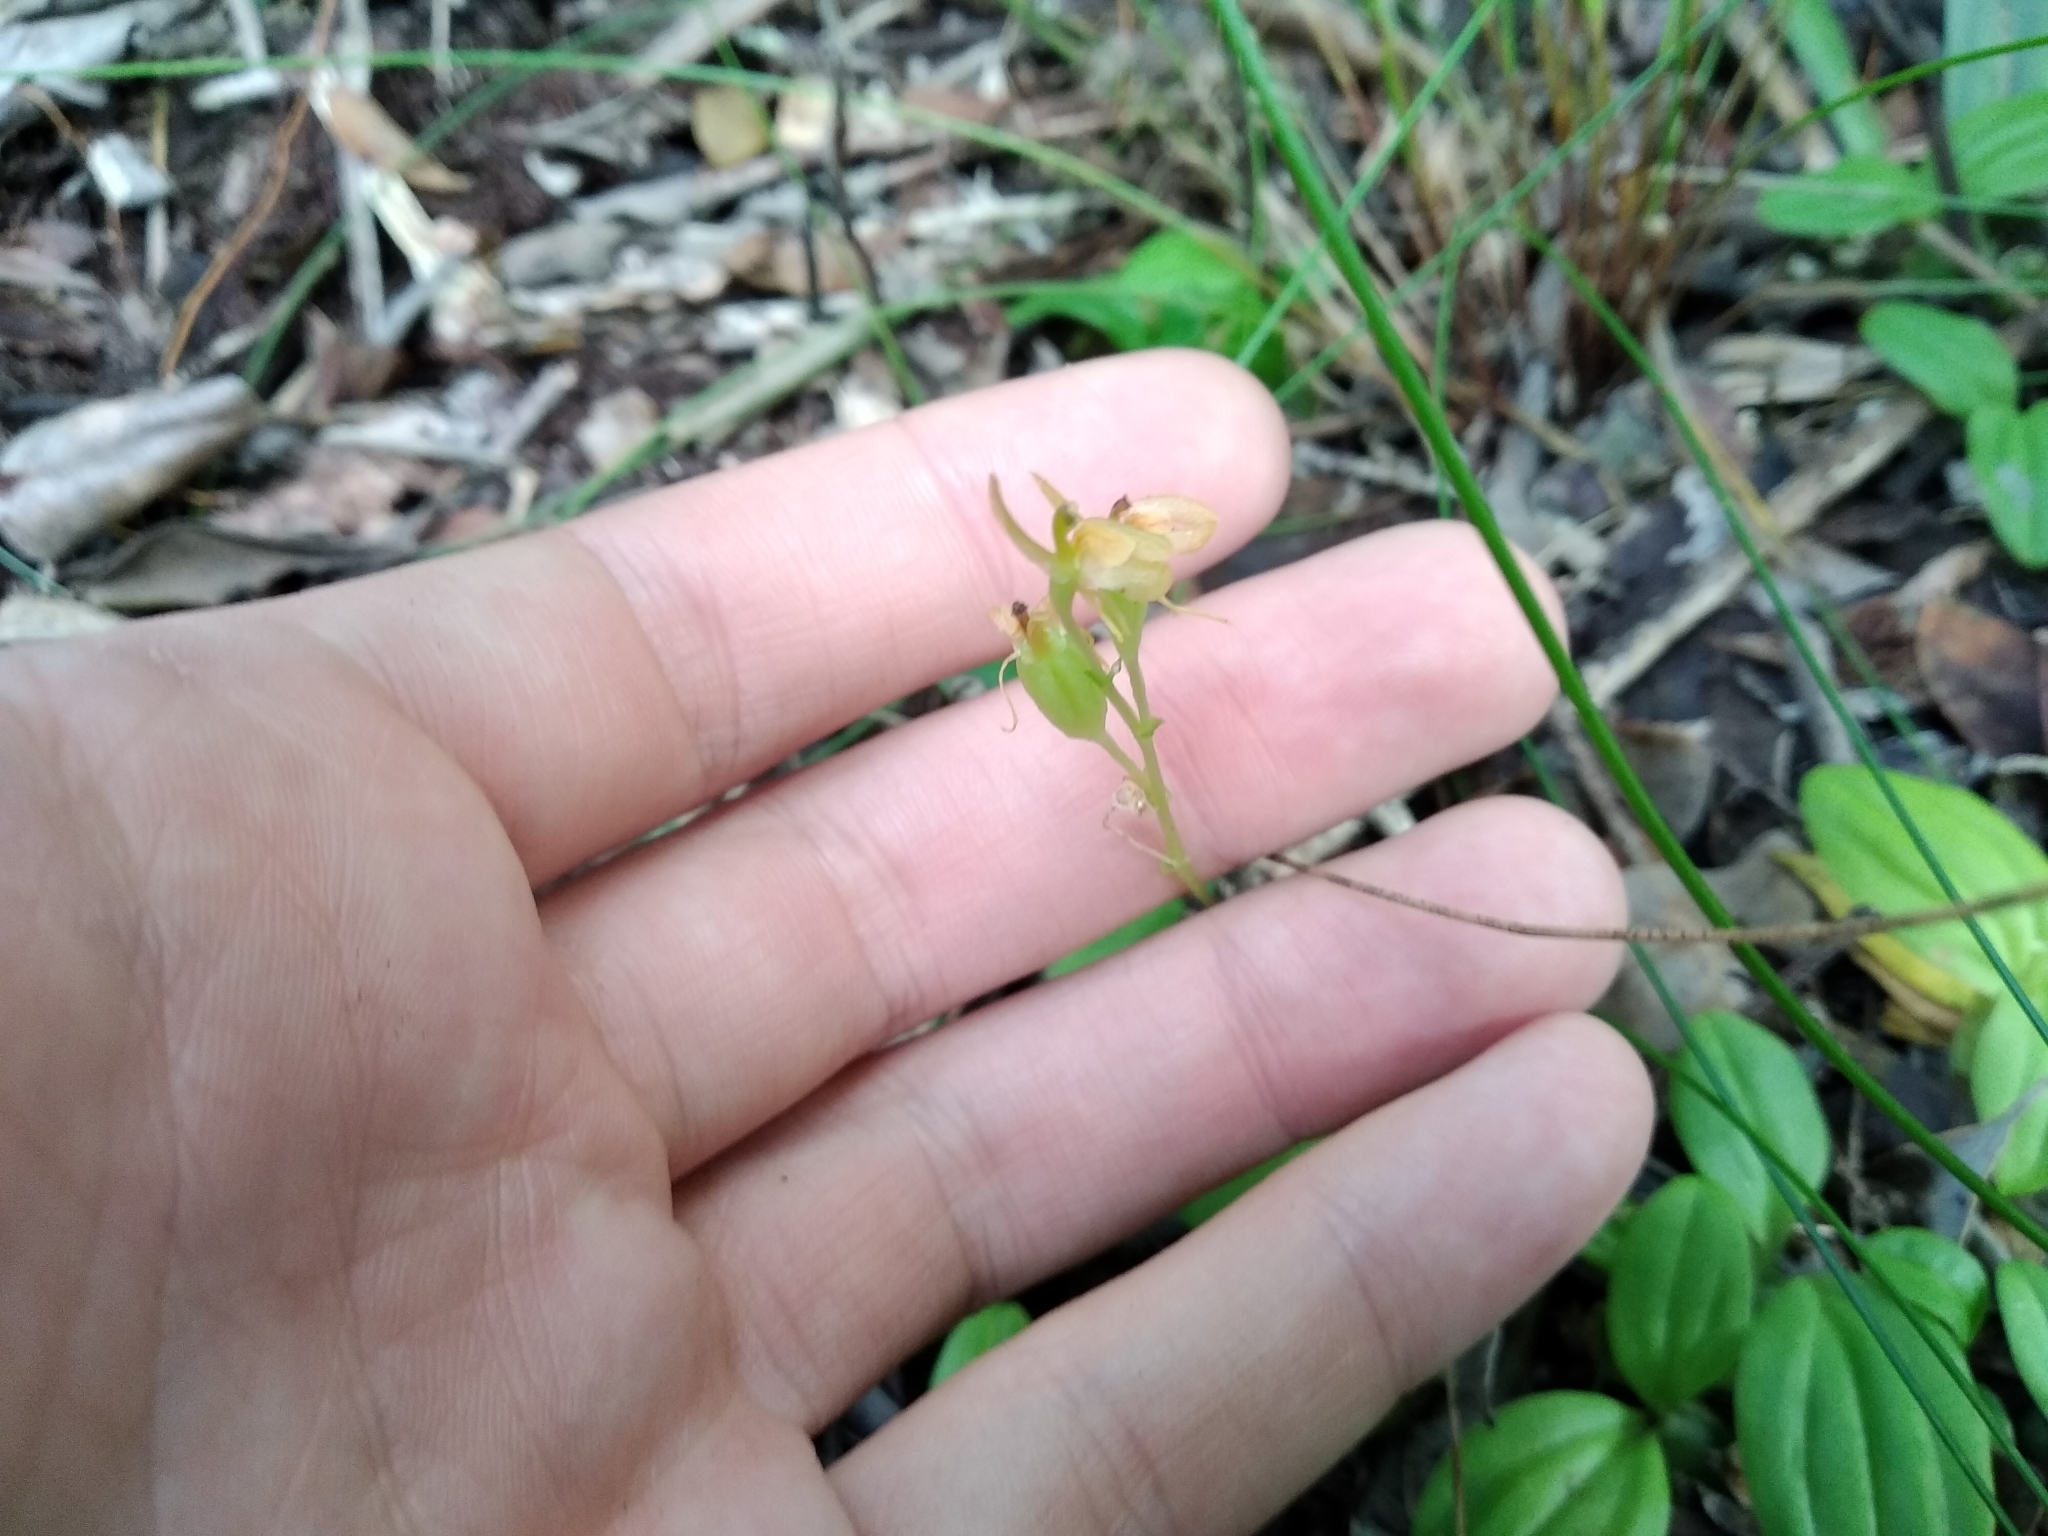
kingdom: Plantae
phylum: Tracheophyta
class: Liliopsida
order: Asparagales
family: Orchidaceae
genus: Liparis
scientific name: Liparis remota
